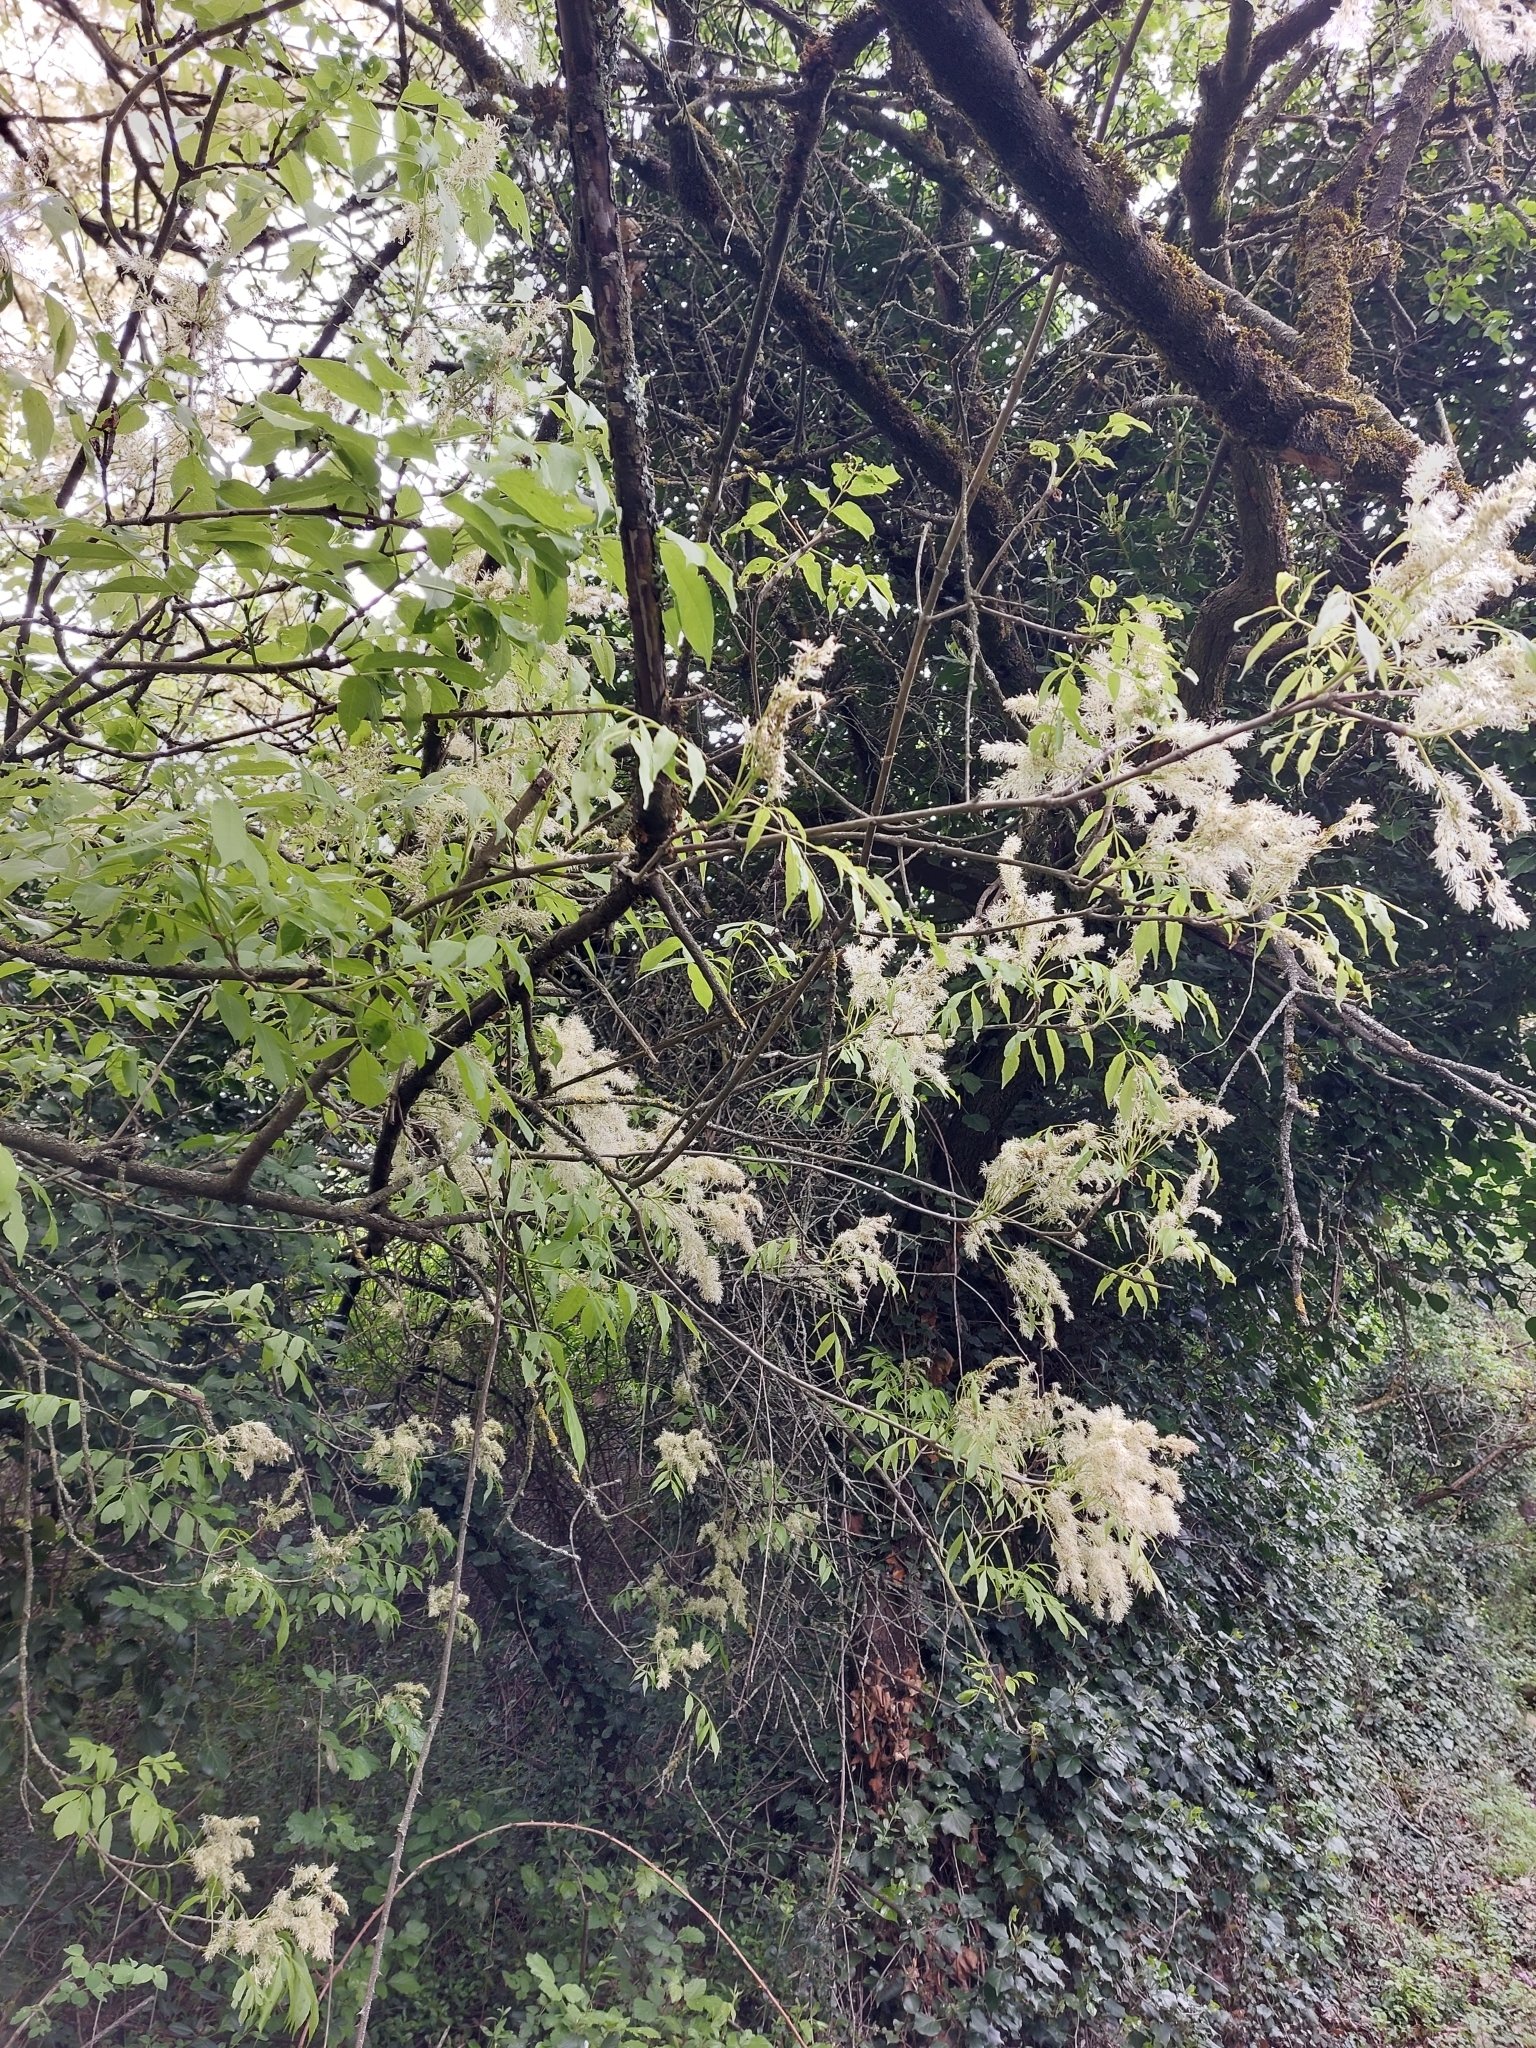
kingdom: Plantae
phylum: Tracheophyta
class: Magnoliopsida
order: Lamiales
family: Oleaceae
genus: Fraxinus
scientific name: Fraxinus ornus
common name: Manna ash
